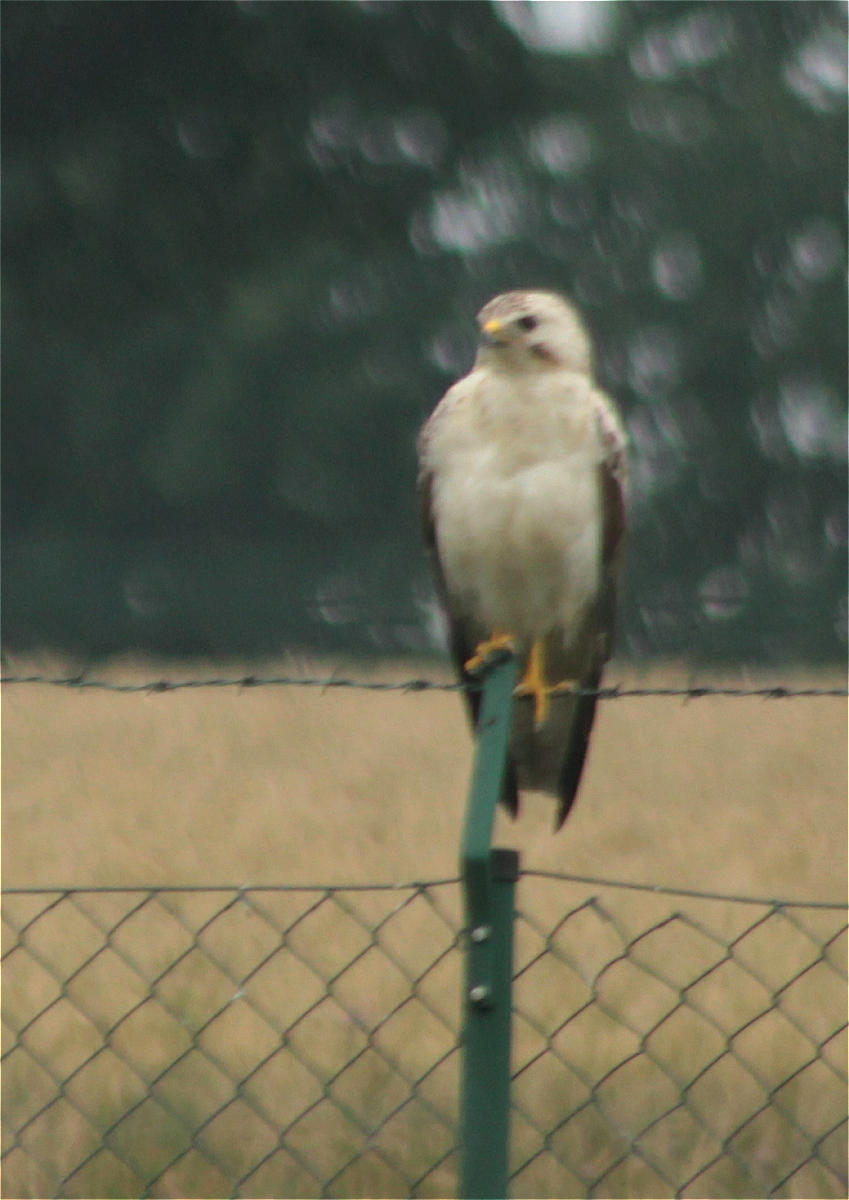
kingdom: Animalia
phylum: Chordata
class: Aves
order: Accipitriformes
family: Accipitridae
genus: Buteo
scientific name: Buteo buteo
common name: Common buzzard
